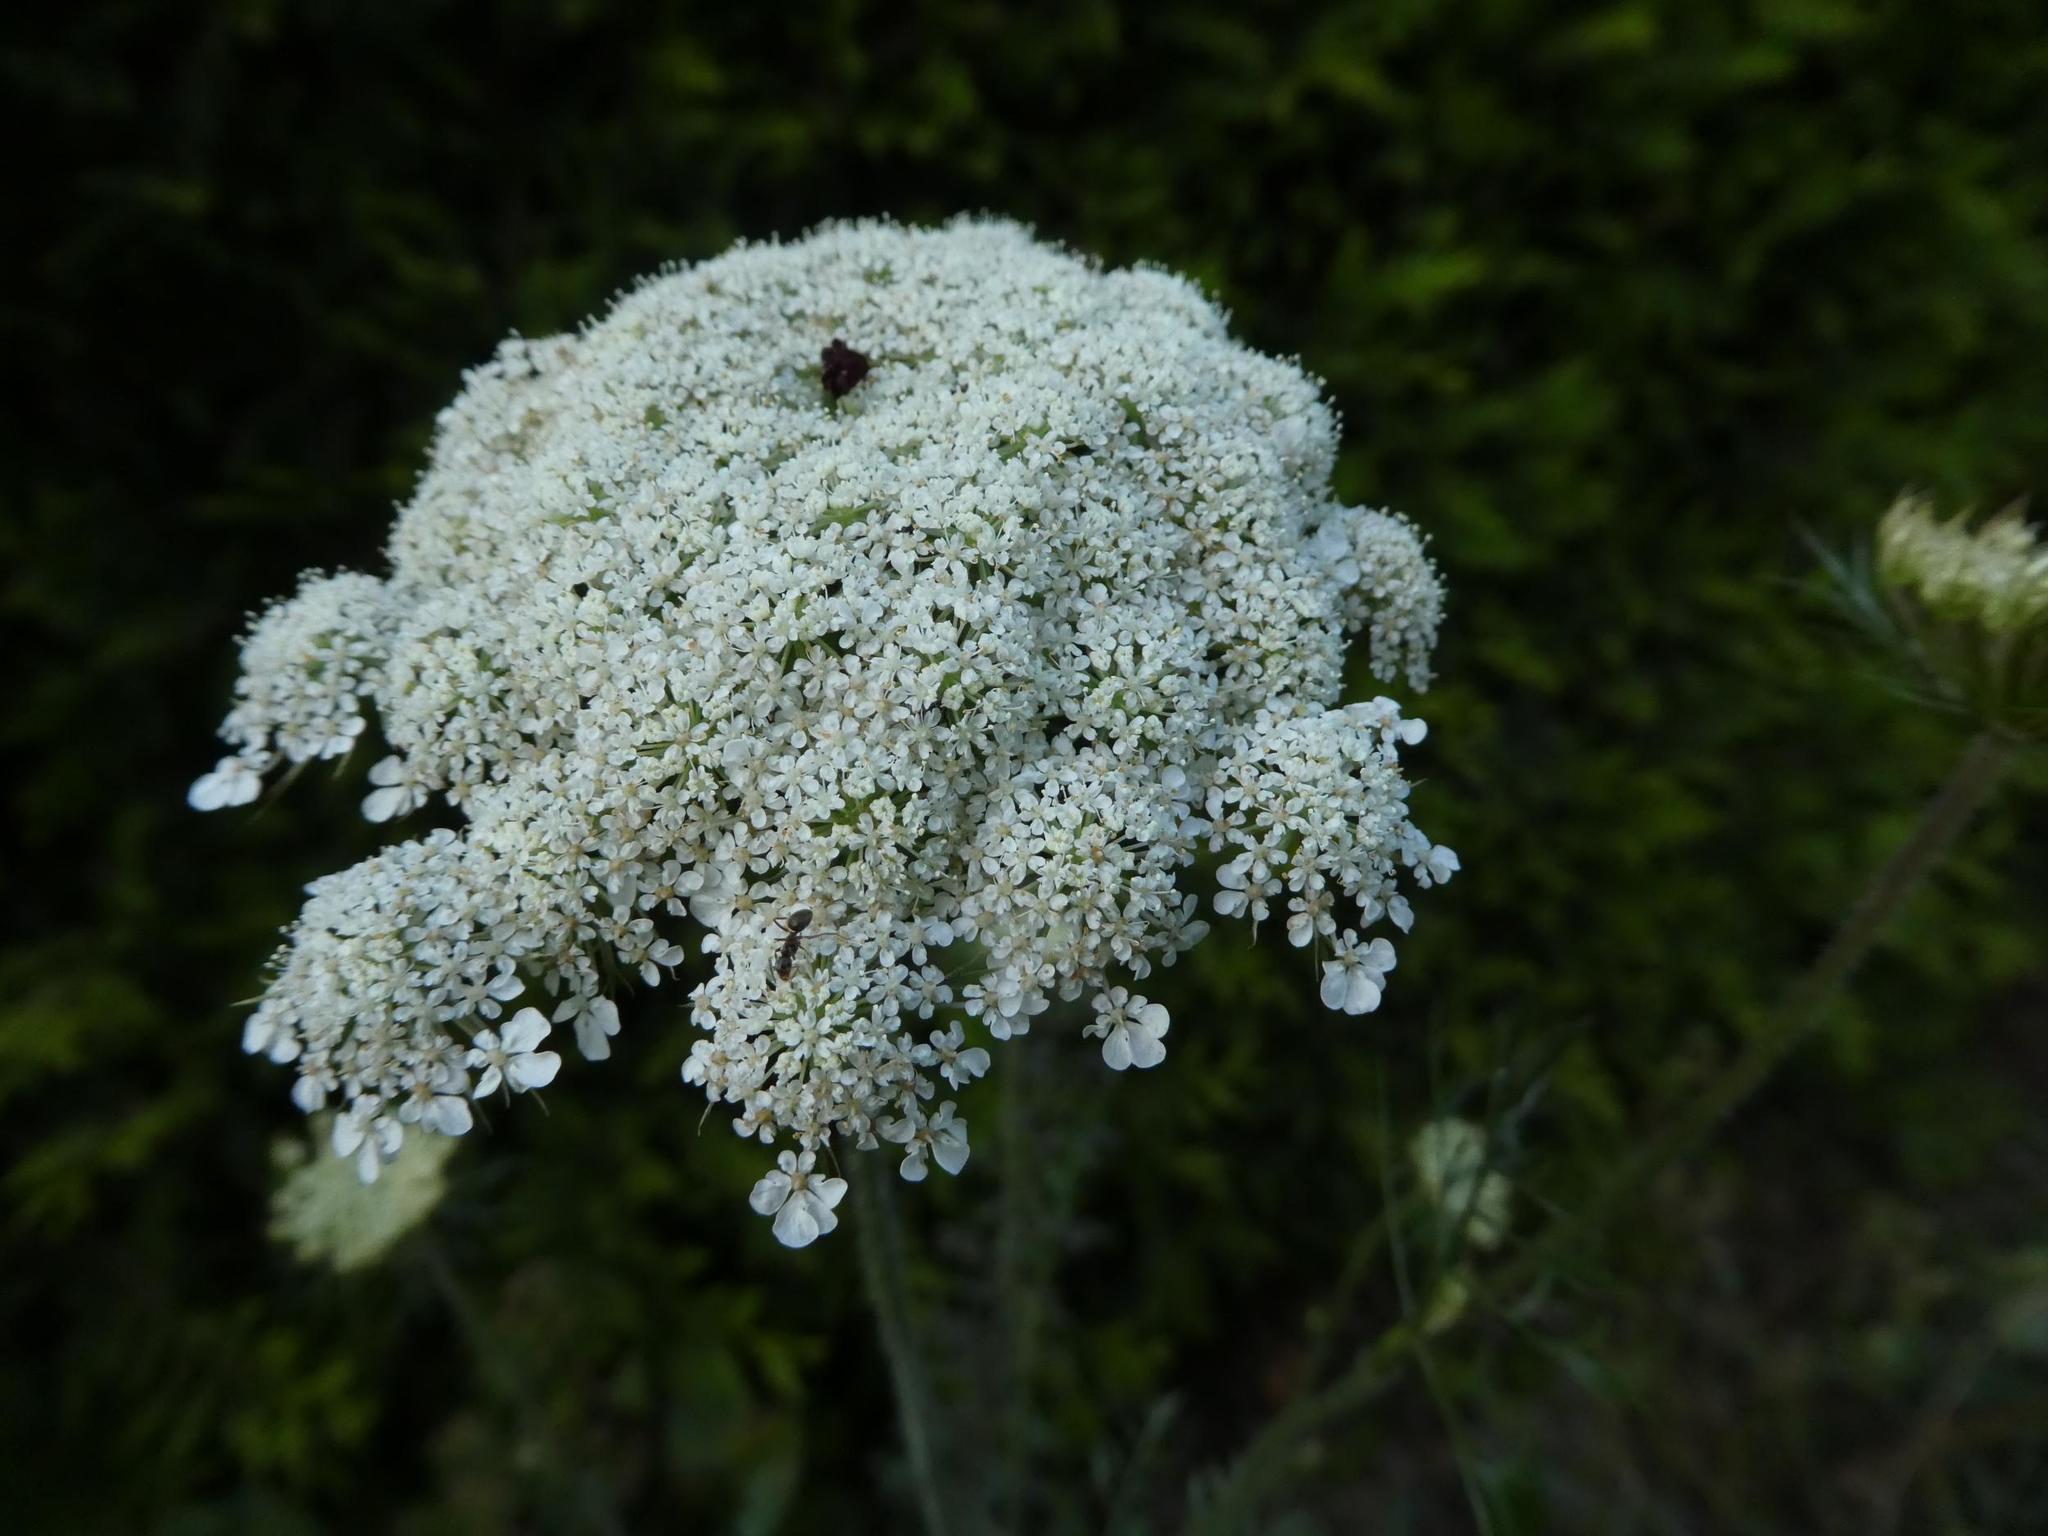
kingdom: Plantae
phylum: Tracheophyta
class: Magnoliopsida
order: Apiales
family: Apiaceae
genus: Daucus
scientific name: Daucus carota
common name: Wild carrot
